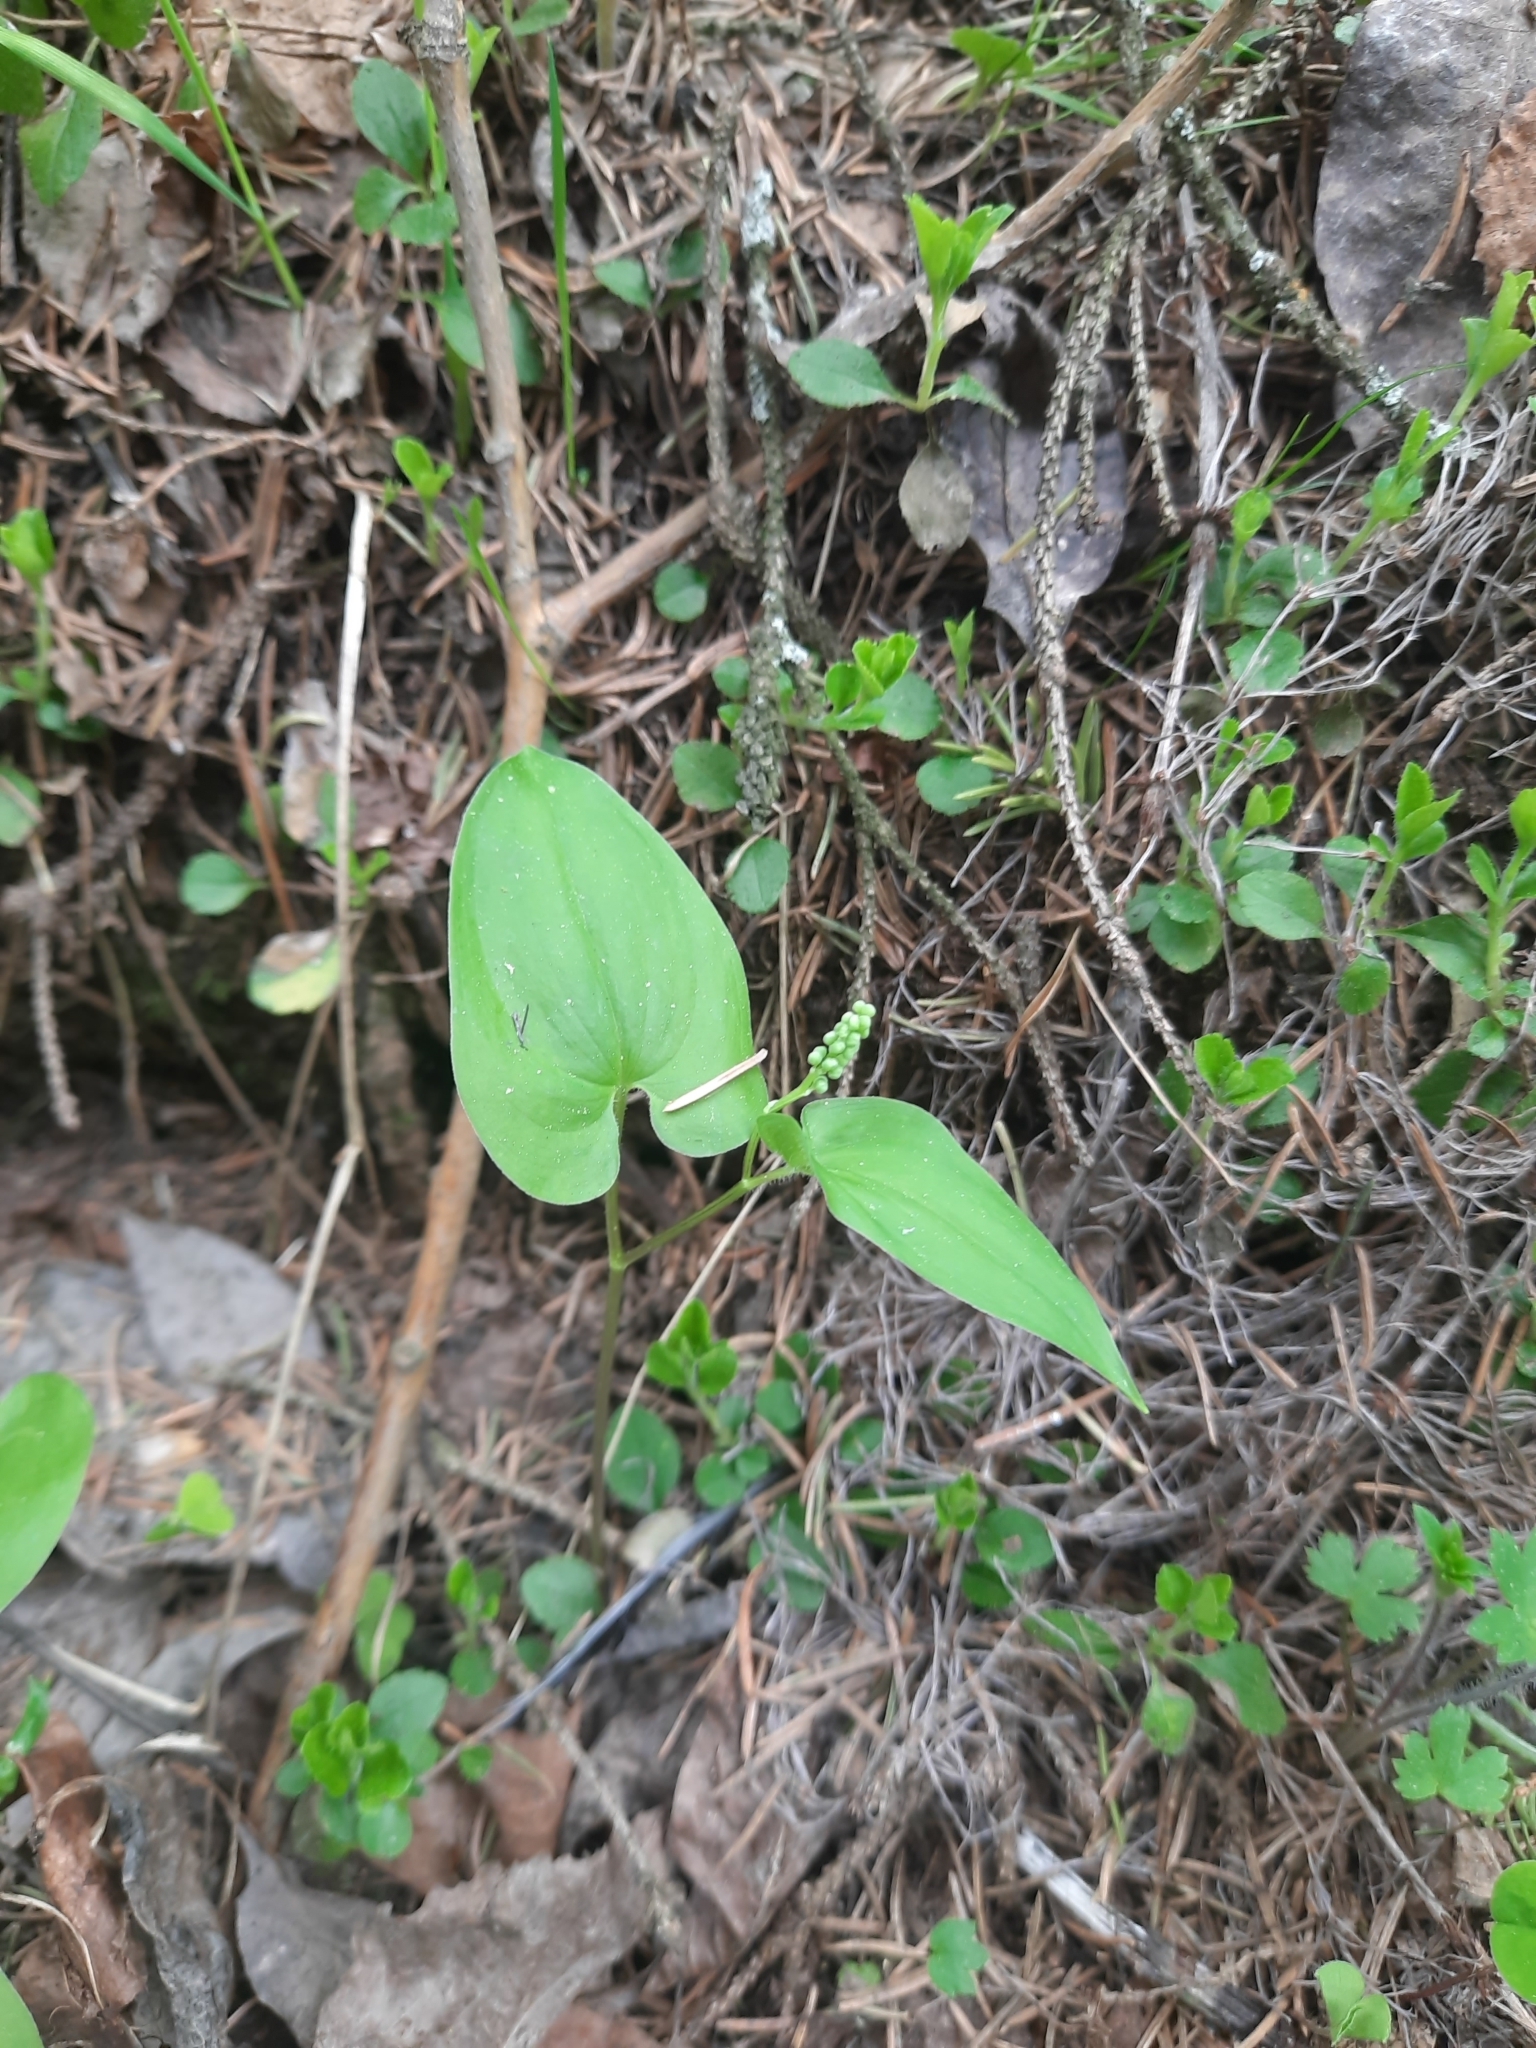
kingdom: Plantae
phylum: Tracheophyta
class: Liliopsida
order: Asparagales
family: Asparagaceae
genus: Maianthemum
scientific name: Maianthemum bifolium
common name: May lily
